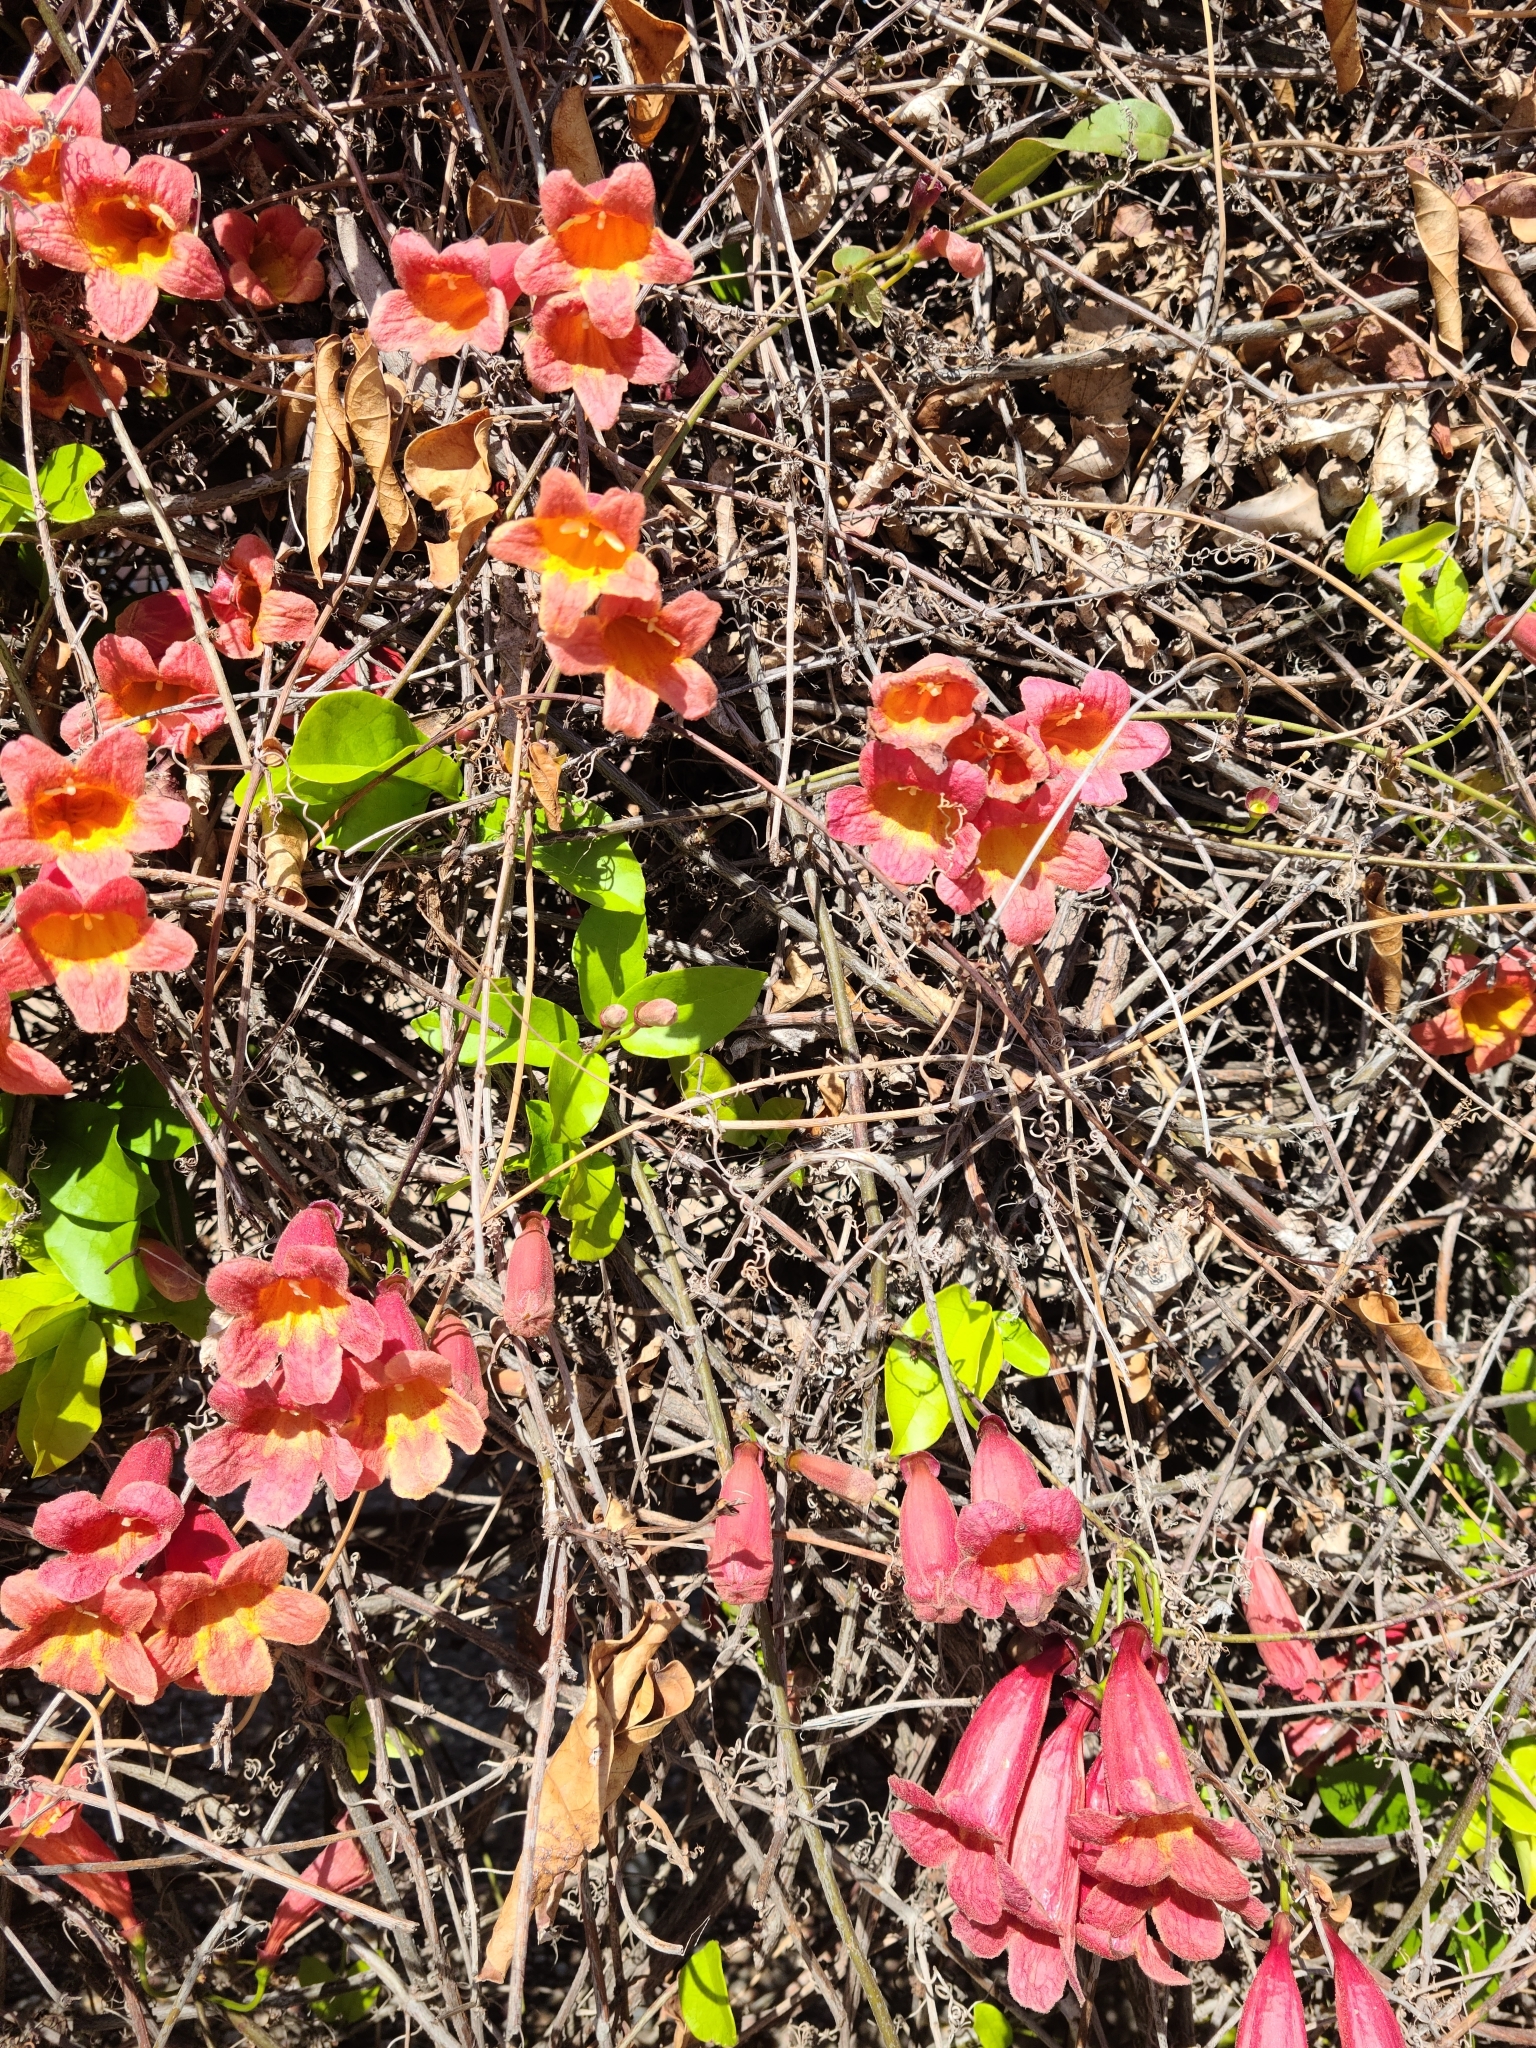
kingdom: Plantae
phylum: Tracheophyta
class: Magnoliopsida
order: Lamiales
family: Bignoniaceae
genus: Bignonia
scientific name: Bignonia capreolata
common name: Crossvine
